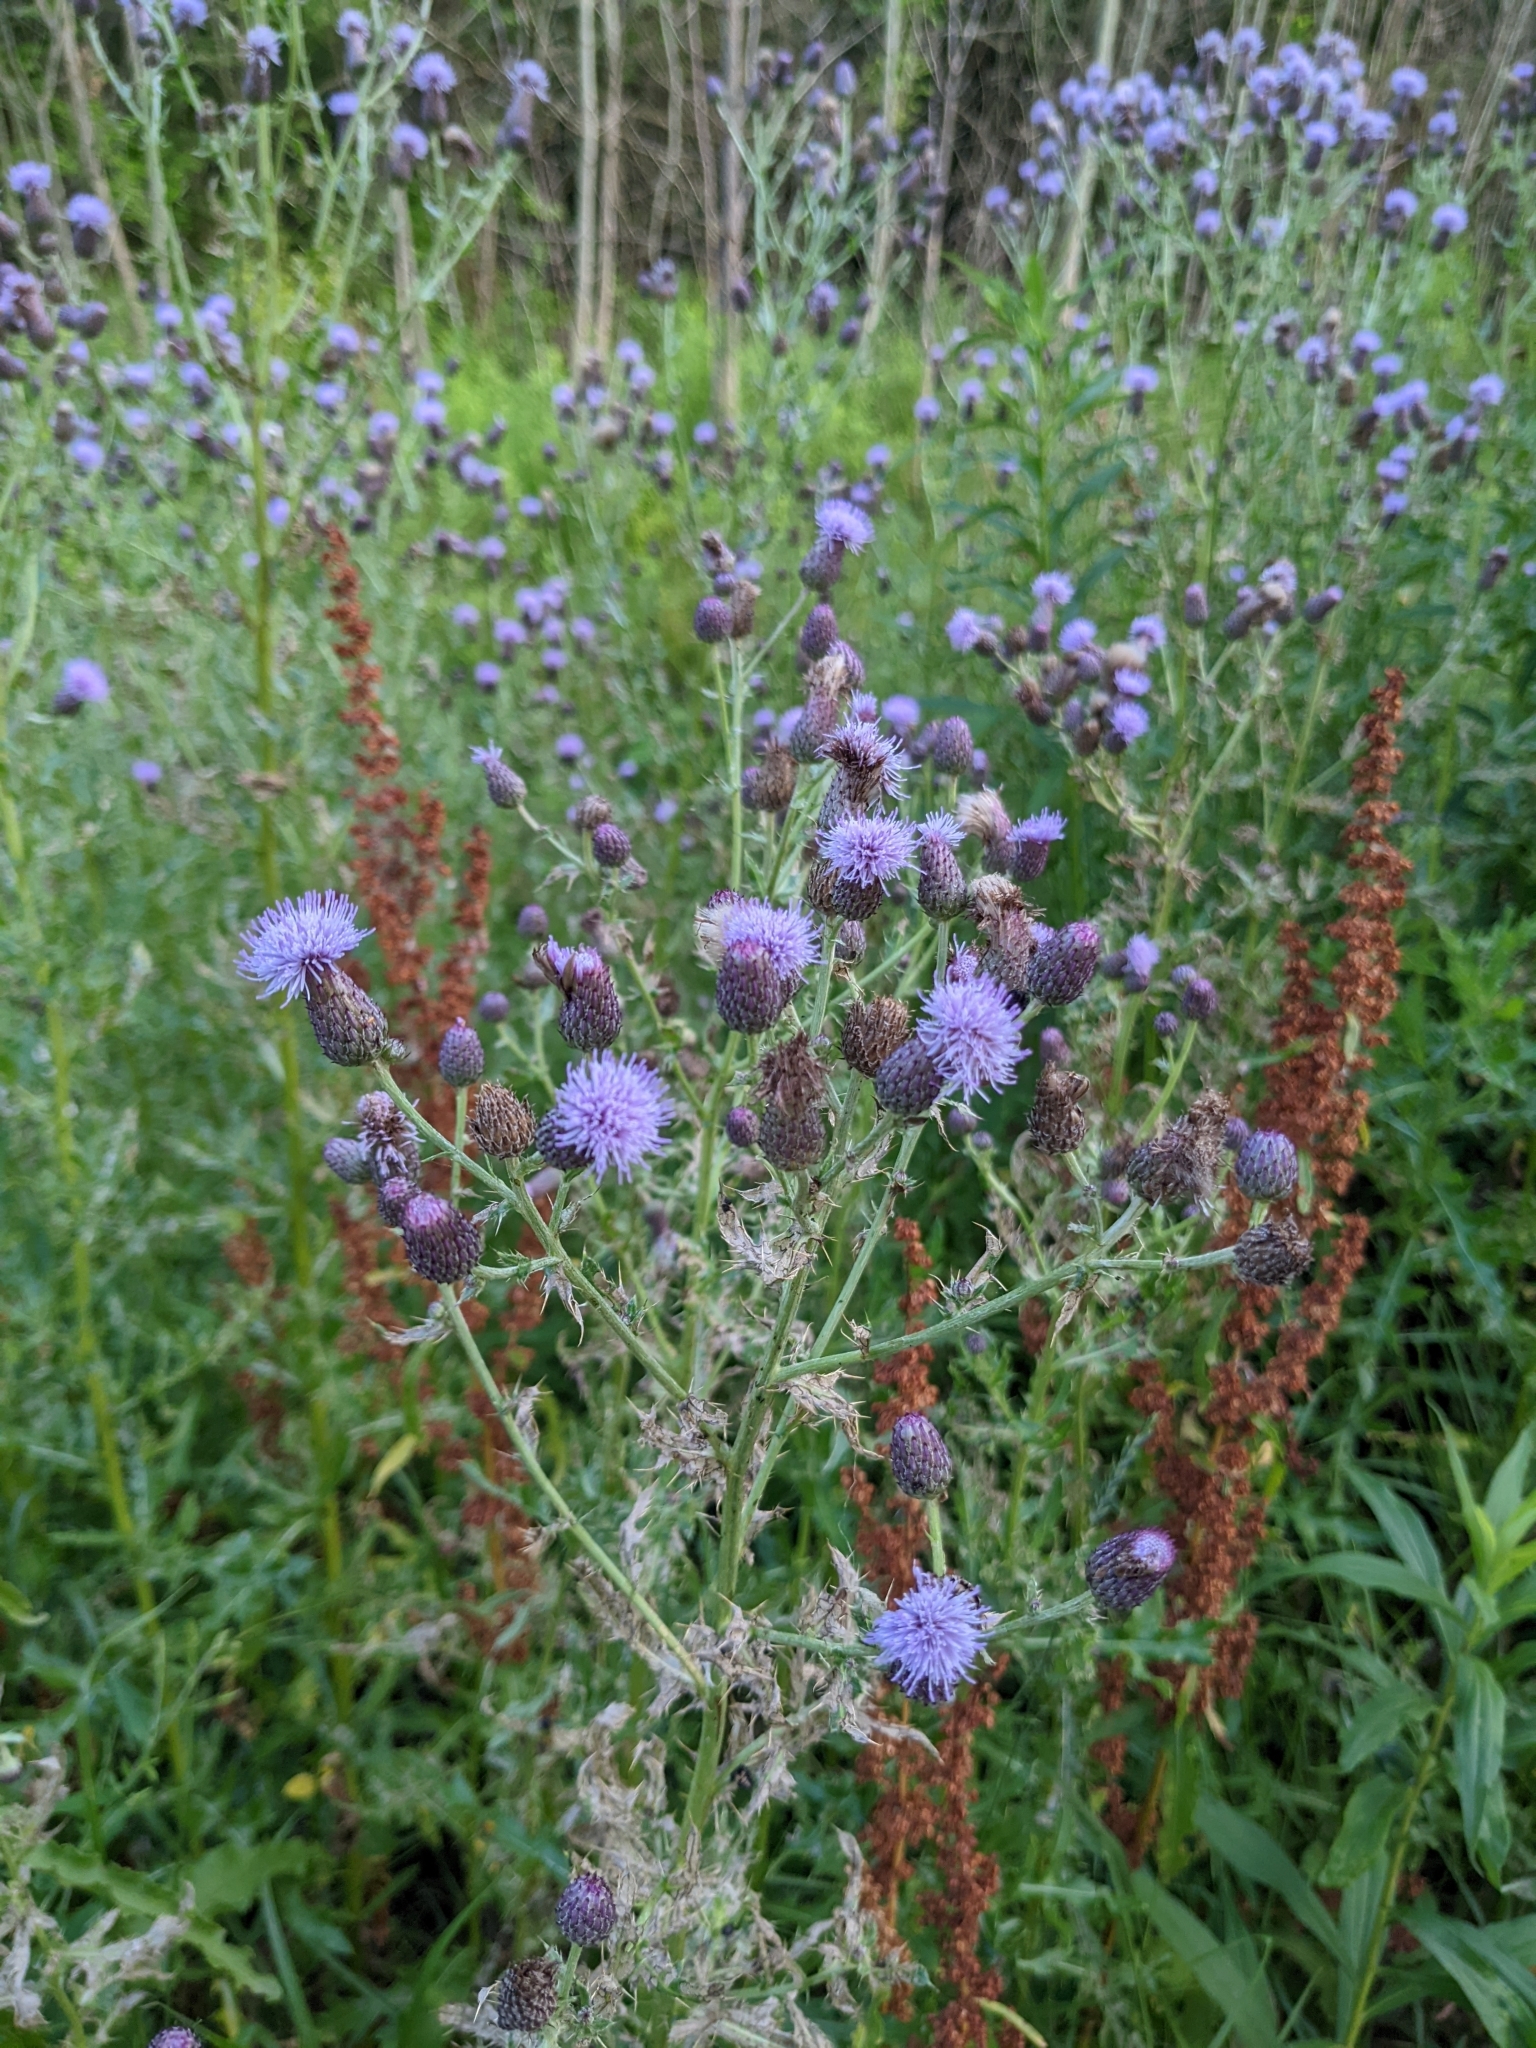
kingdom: Plantae
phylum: Tracheophyta
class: Magnoliopsida
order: Asterales
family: Asteraceae
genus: Cirsium
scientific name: Cirsium arvense
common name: Creeping thistle
